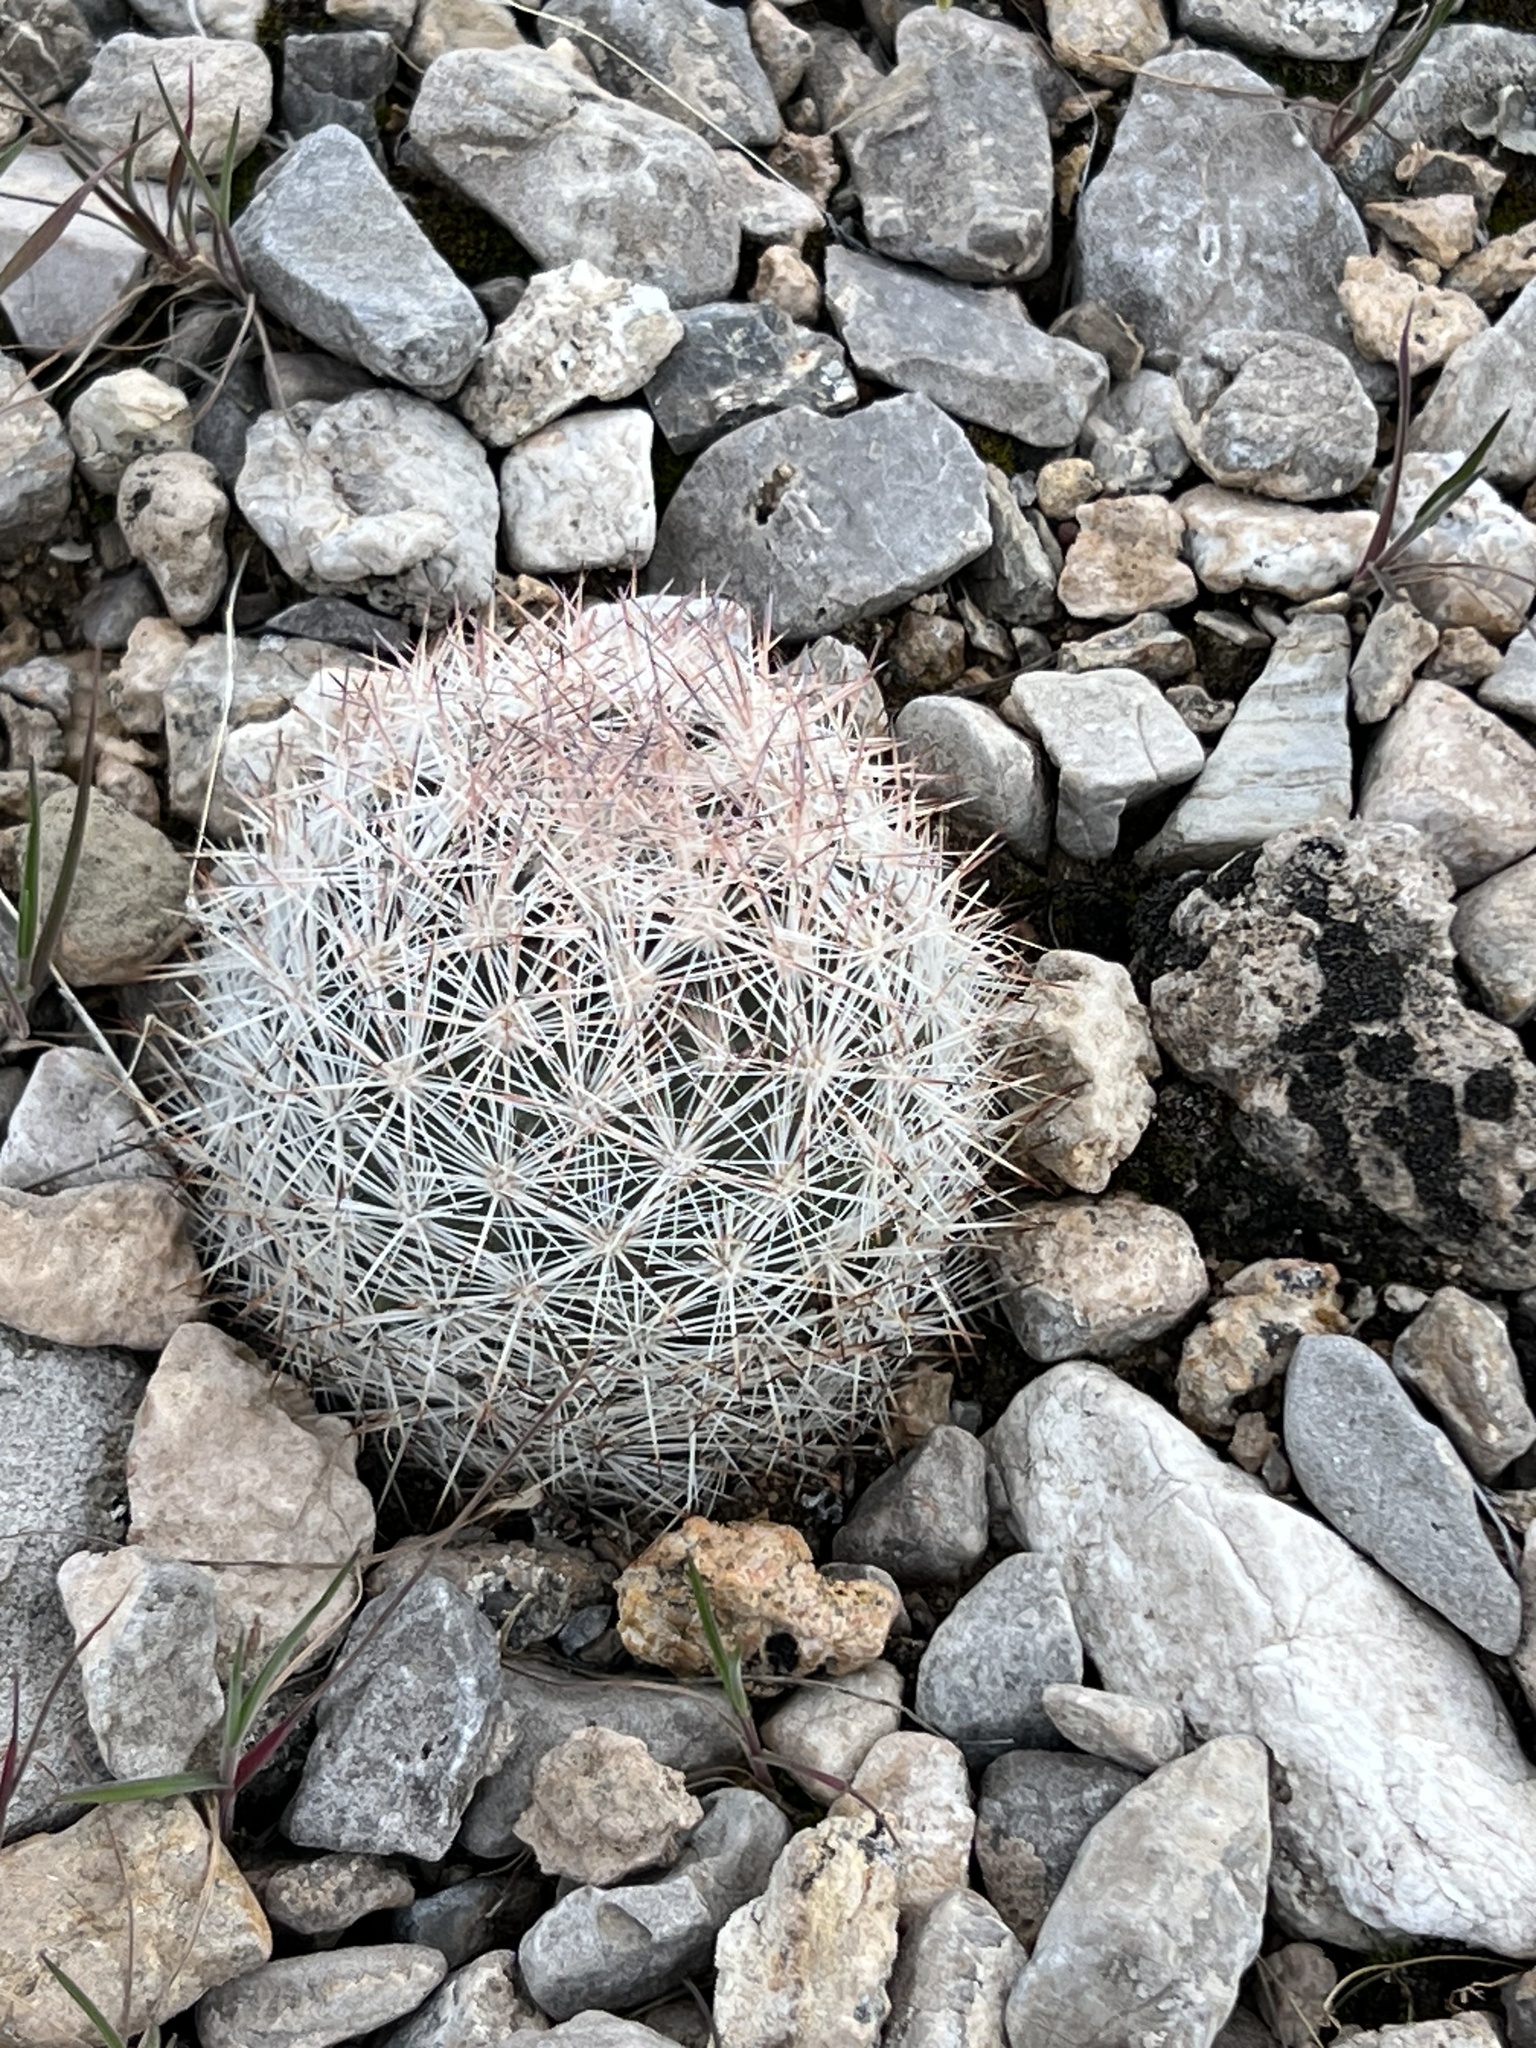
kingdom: Plantae
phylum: Tracheophyta
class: Magnoliopsida
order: Caryophyllales
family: Cactaceae
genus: Pelecyphora
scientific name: Pelecyphora dasyacantha
